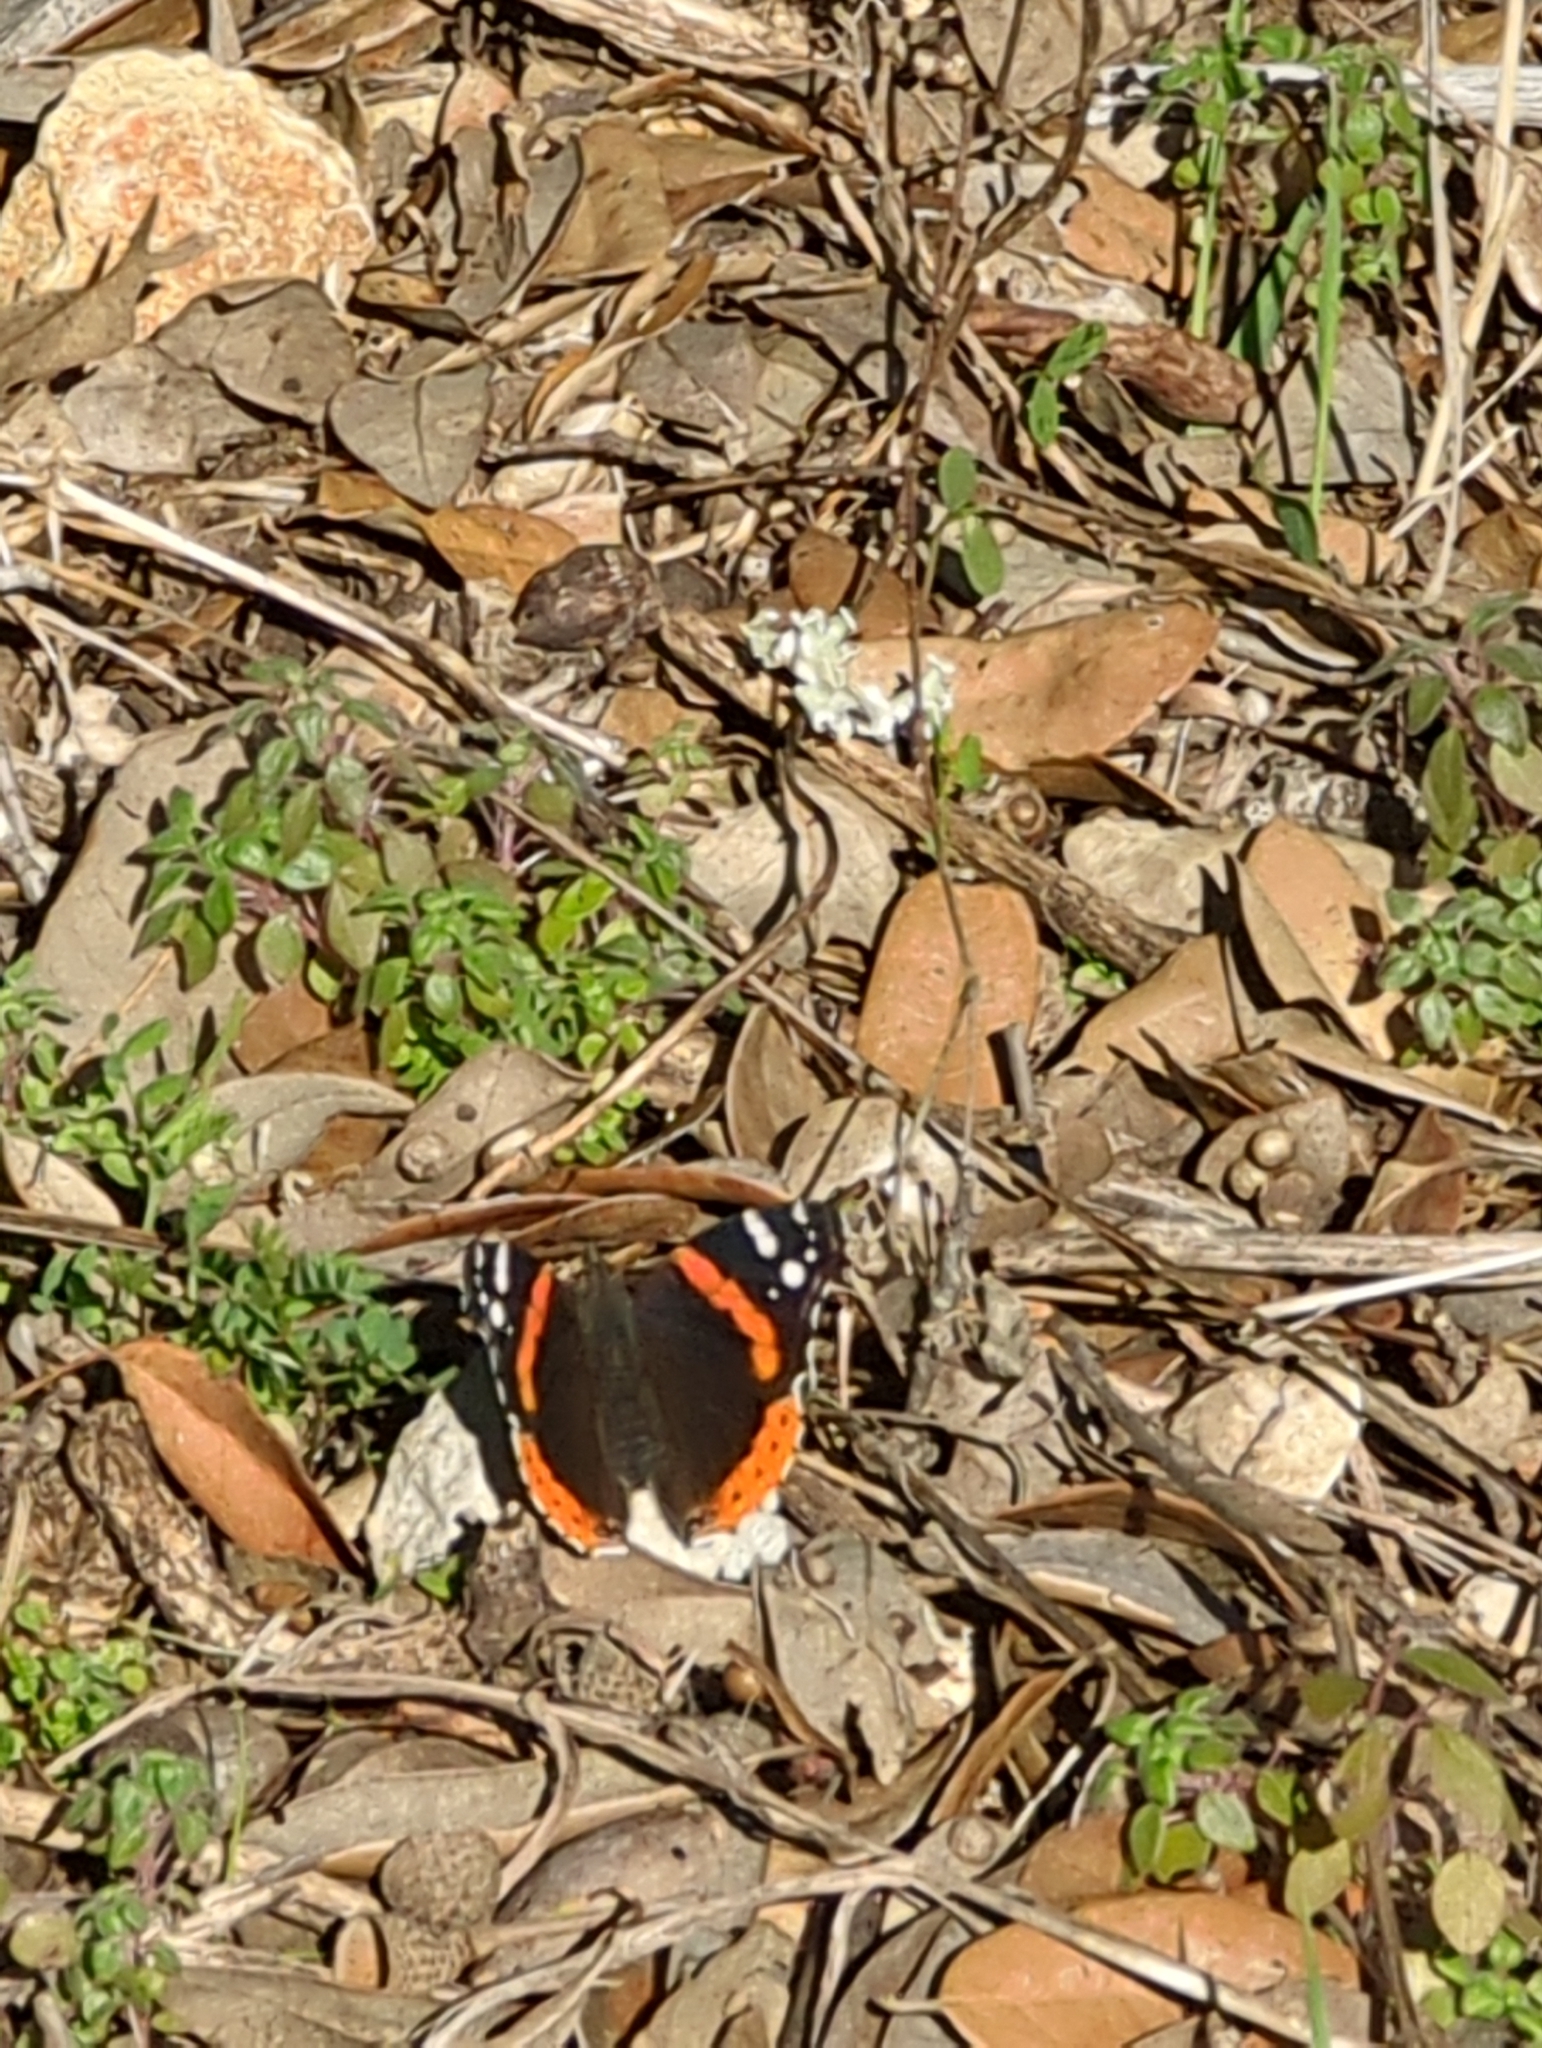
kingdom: Animalia
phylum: Arthropoda
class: Insecta
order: Lepidoptera
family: Nymphalidae
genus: Vanessa
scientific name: Vanessa atalanta
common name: Red admiral
